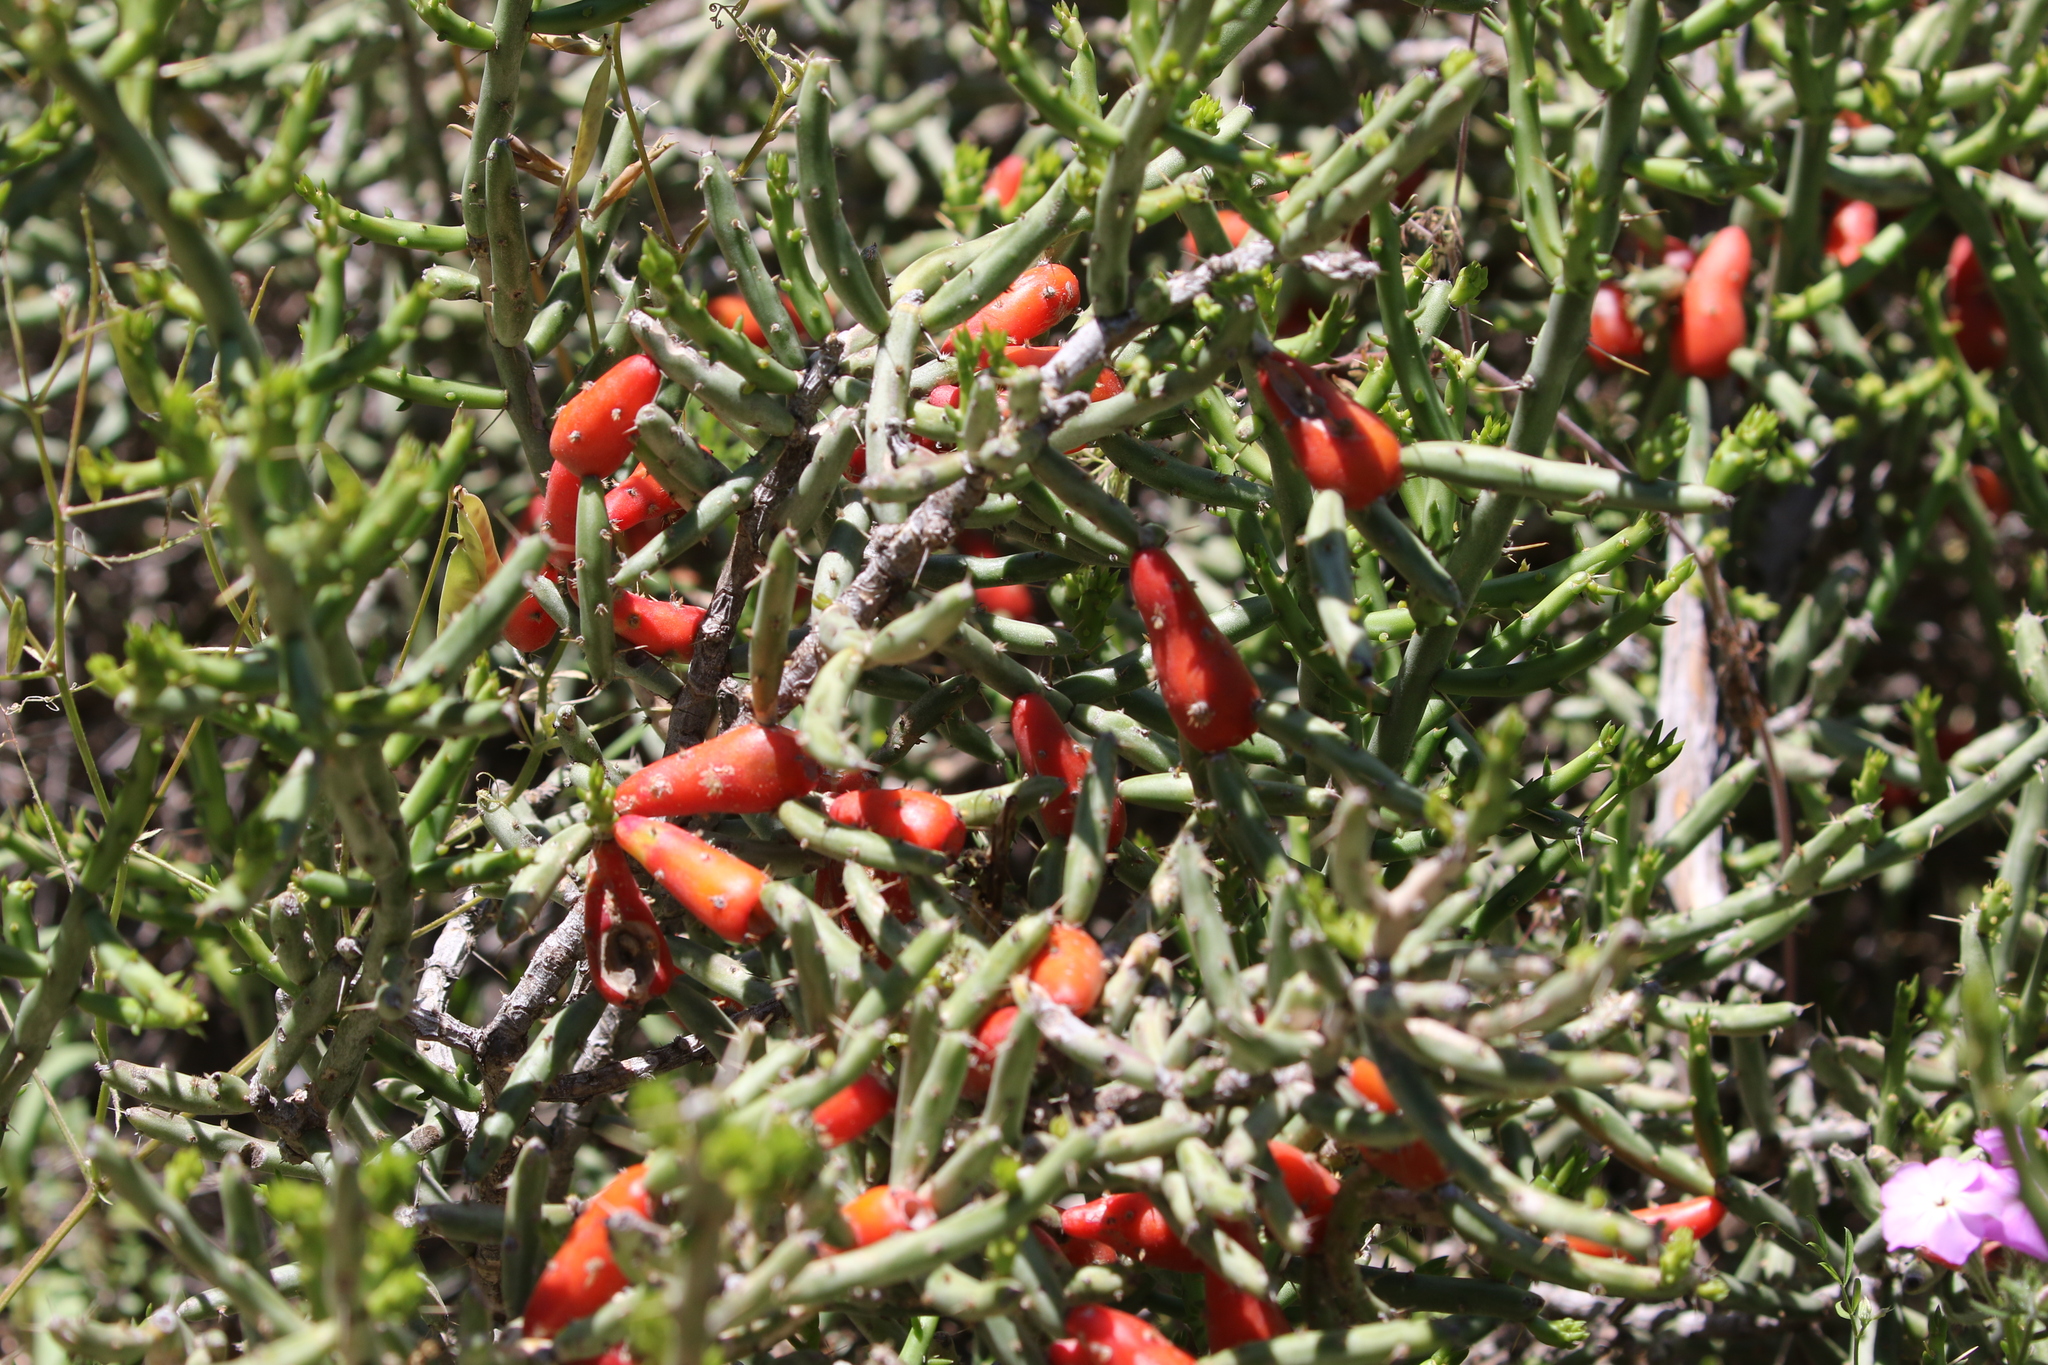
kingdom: Plantae
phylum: Tracheophyta
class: Magnoliopsida
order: Caryophyllales
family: Cactaceae
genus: Cylindropuntia
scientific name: Cylindropuntia leptocaulis
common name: Christmas cactus
